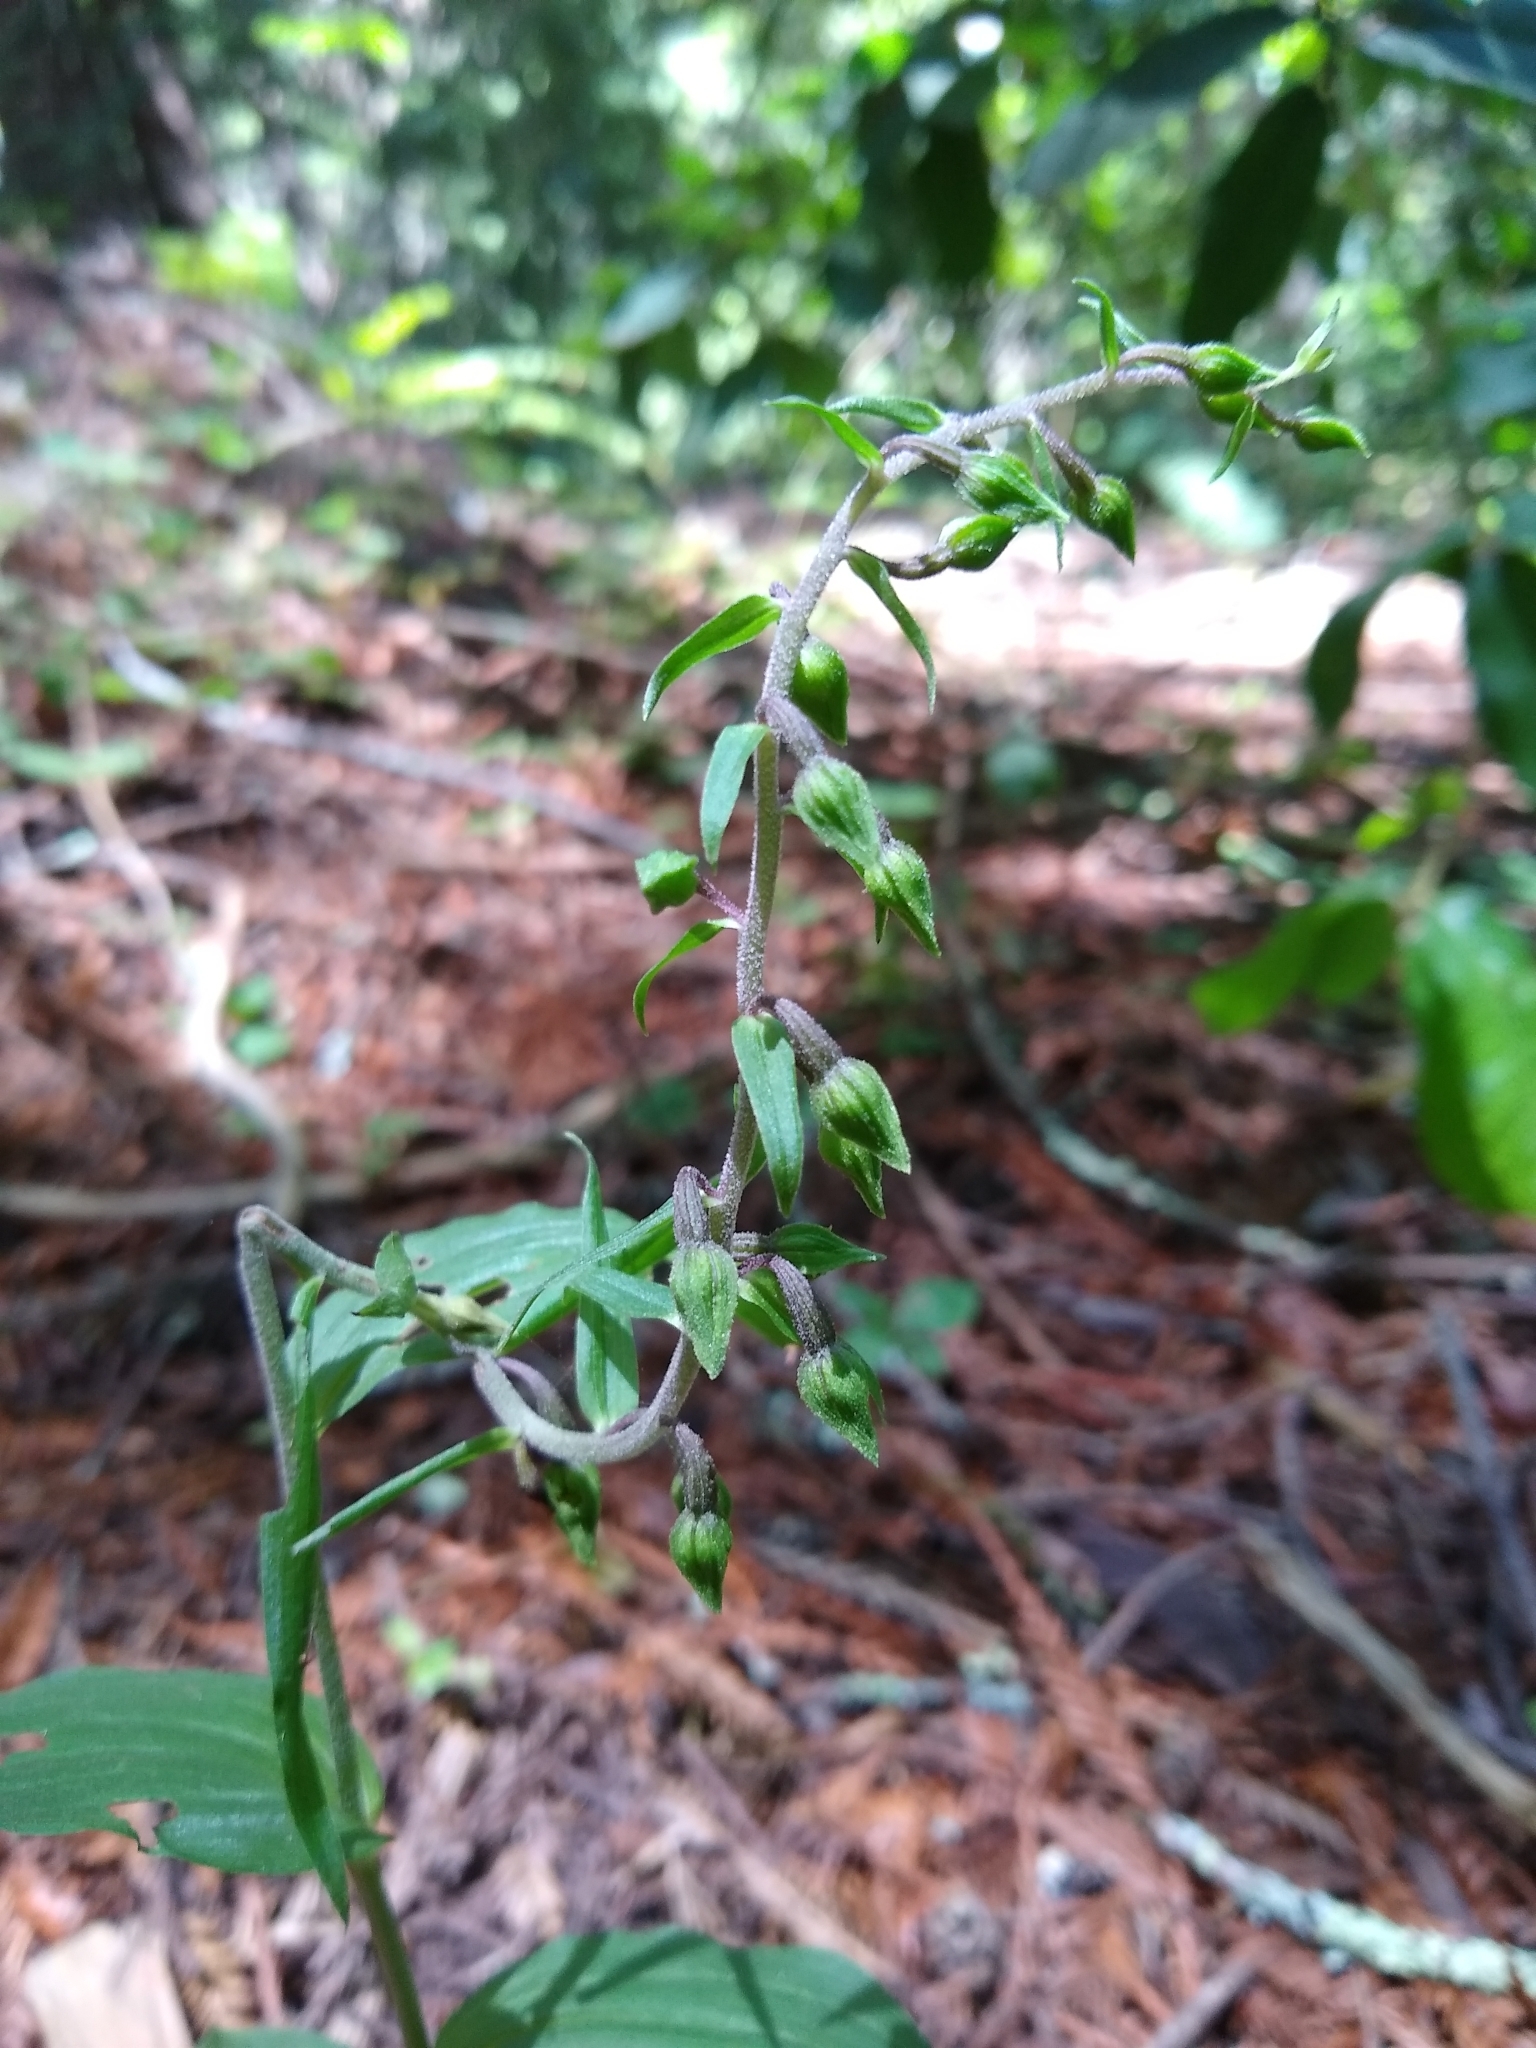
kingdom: Plantae
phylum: Tracheophyta
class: Liliopsida
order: Asparagales
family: Orchidaceae
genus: Epipactis
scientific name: Epipactis helleborine
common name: Broad-leaved helleborine
